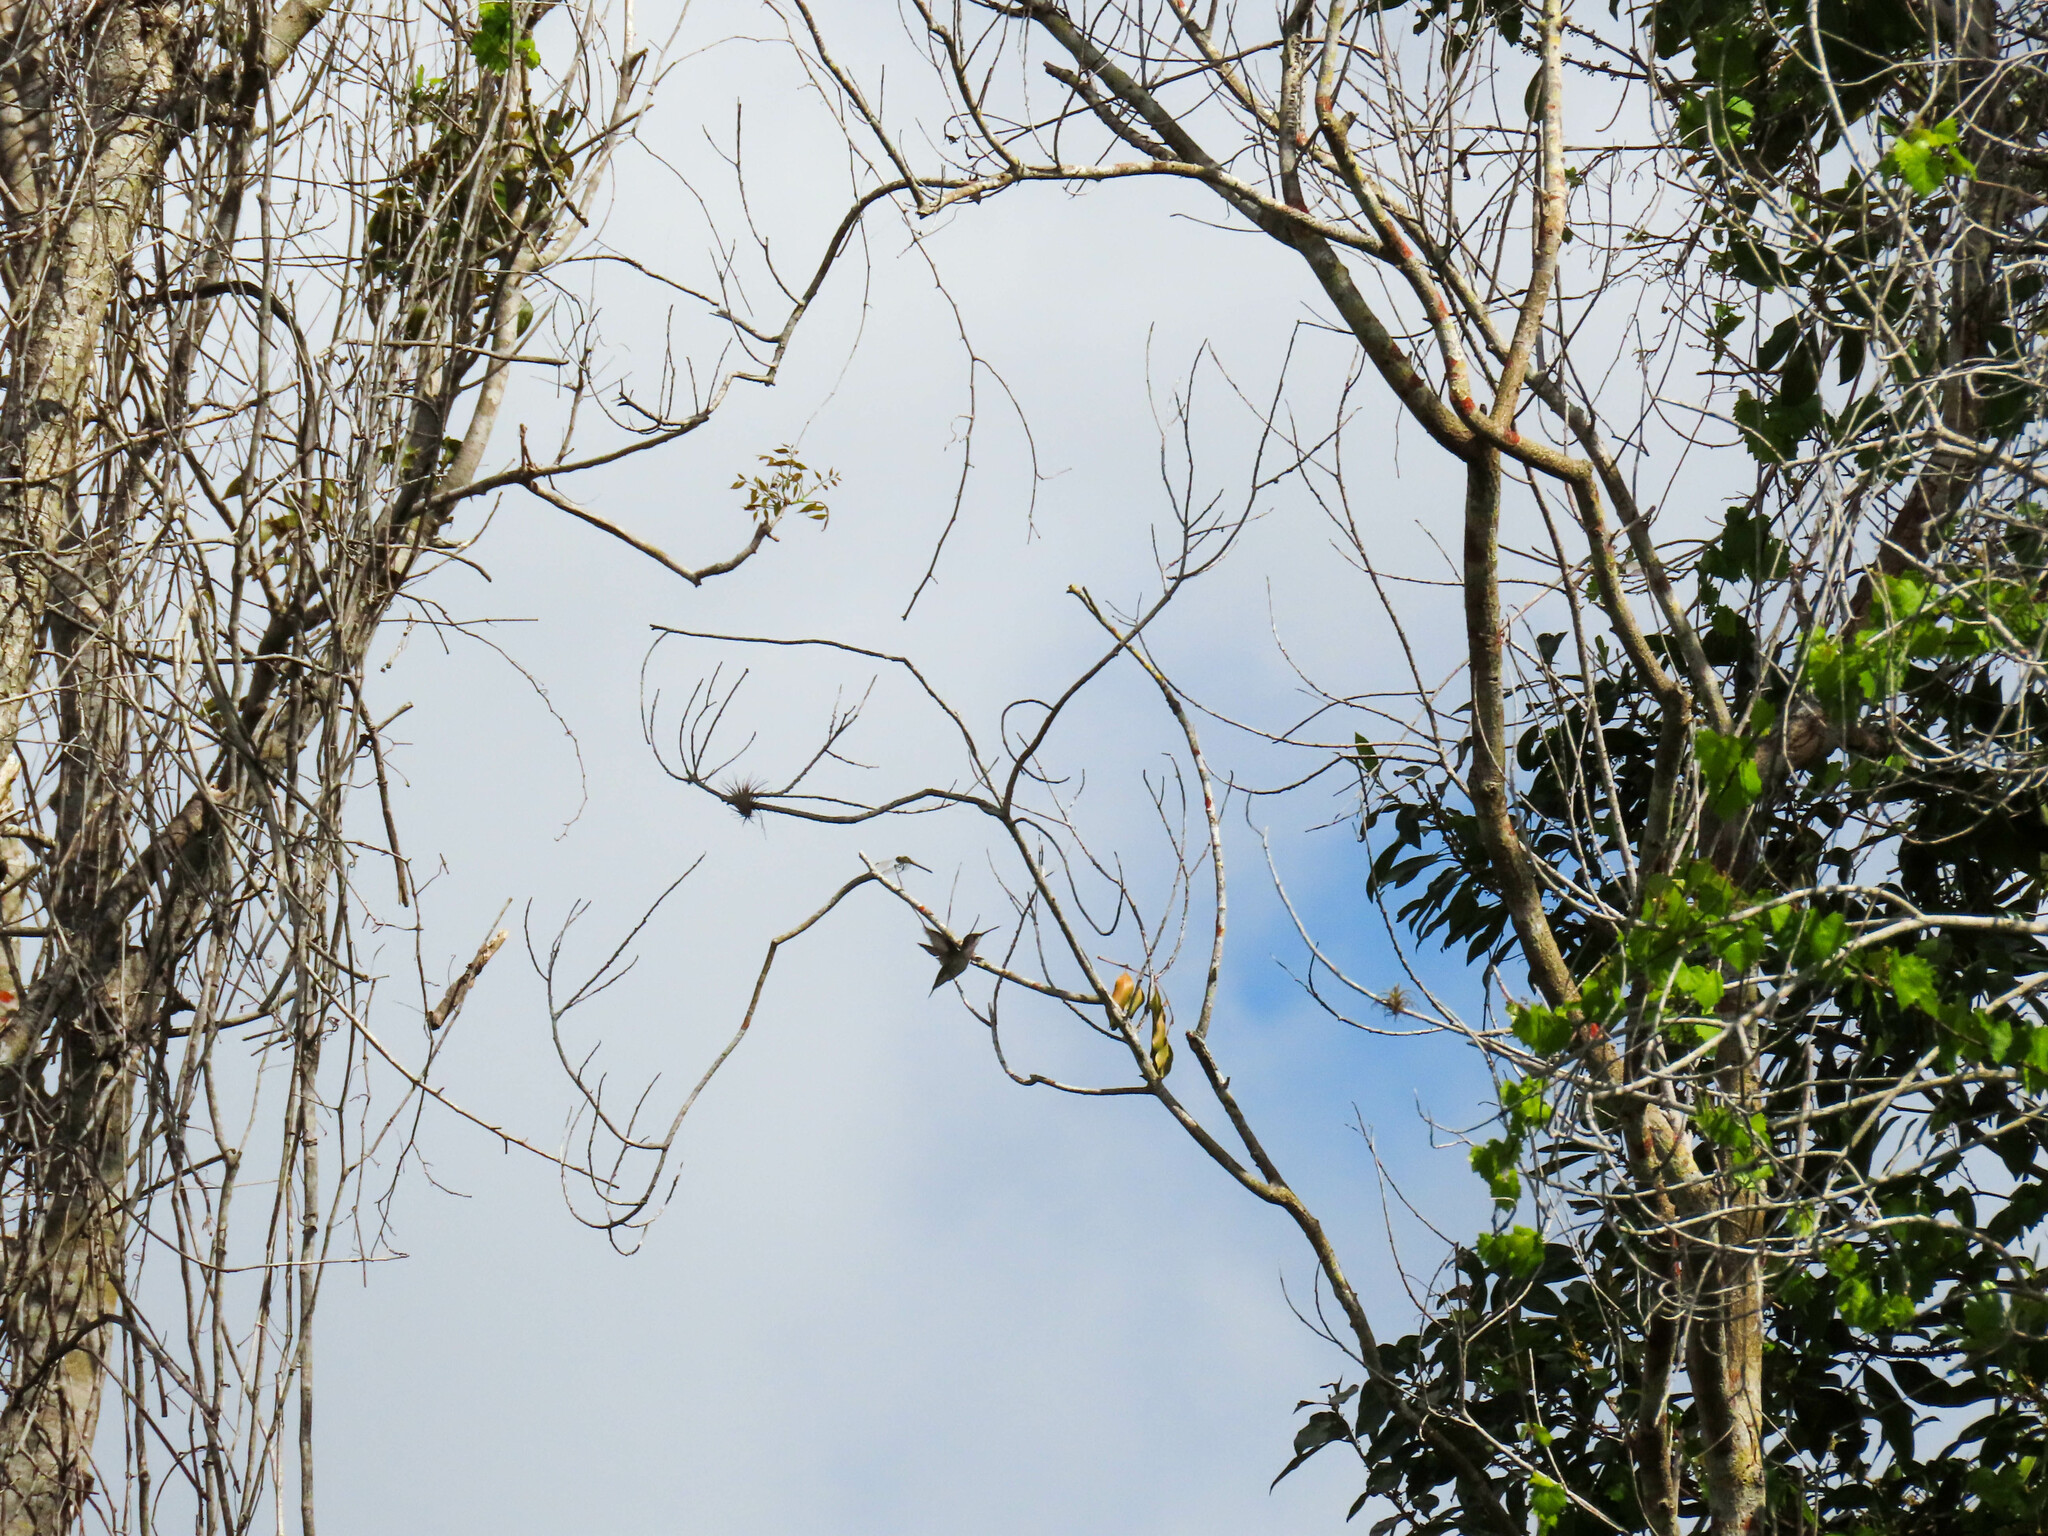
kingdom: Animalia
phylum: Chordata
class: Aves
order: Apodiformes
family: Trochilidae
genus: Archilochus
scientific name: Archilochus colubris
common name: Ruby-throated hummingbird
